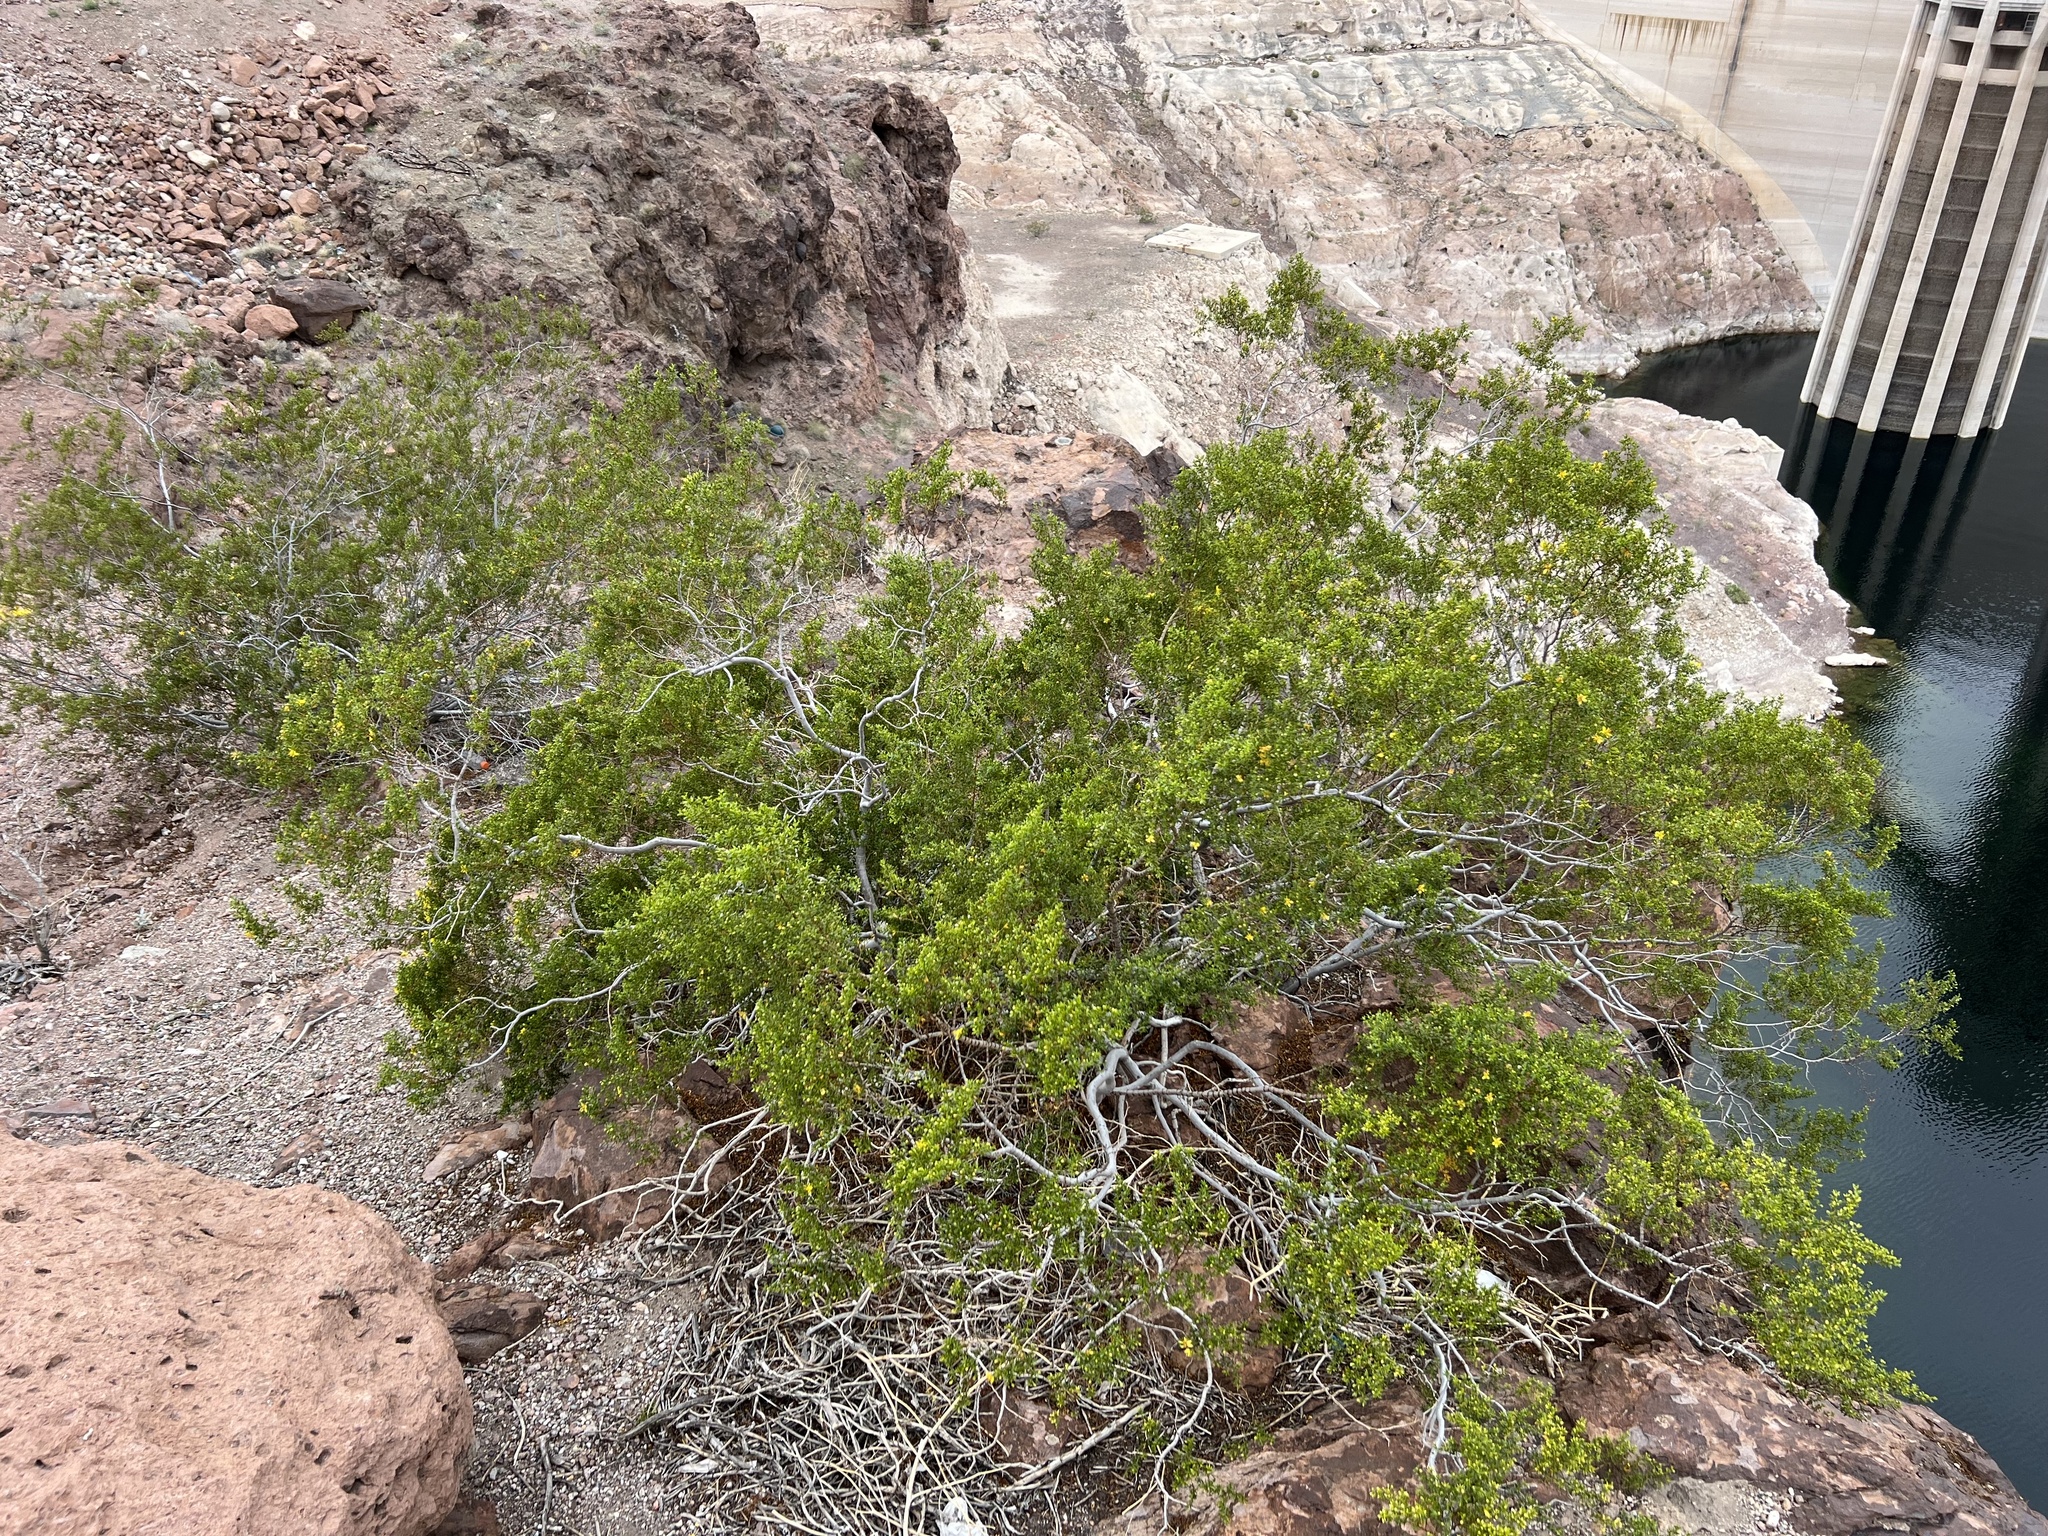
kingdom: Plantae
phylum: Tracheophyta
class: Magnoliopsida
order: Zygophyllales
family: Zygophyllaceae
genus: Larrea
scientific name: Larrea tridentata
